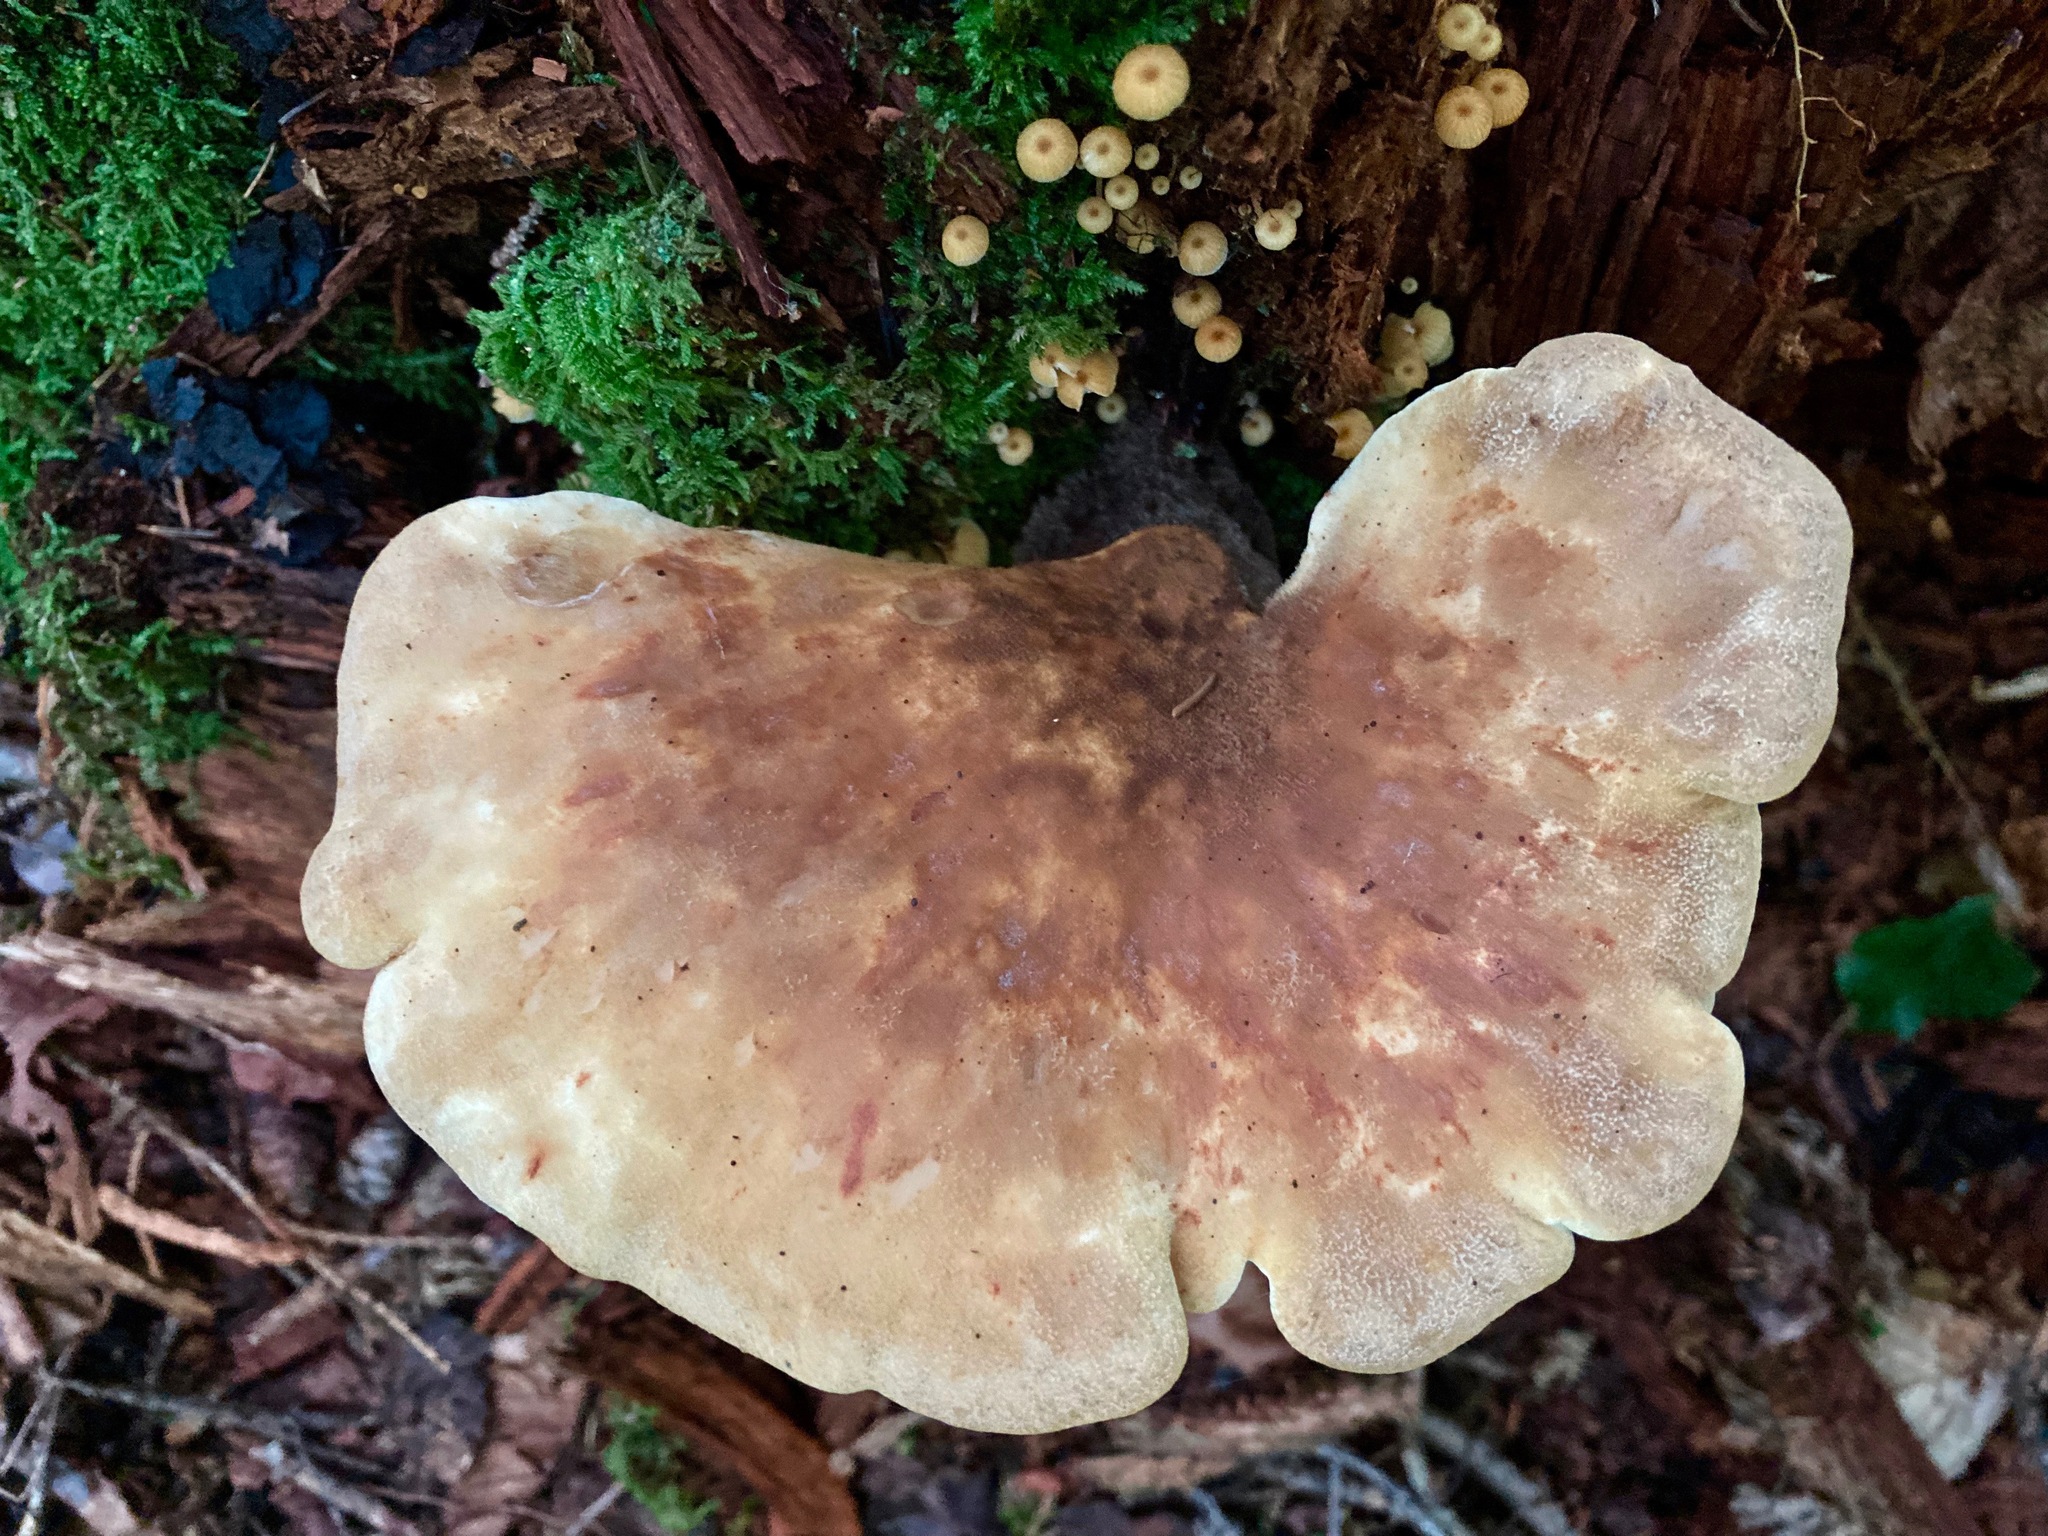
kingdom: Fungi
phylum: Basidiomycota
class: Agaricomycetes
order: Boletales
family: Tapinellaceae
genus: Tapinella
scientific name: Tapinella atrotomentosa
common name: Velvet rollrim
